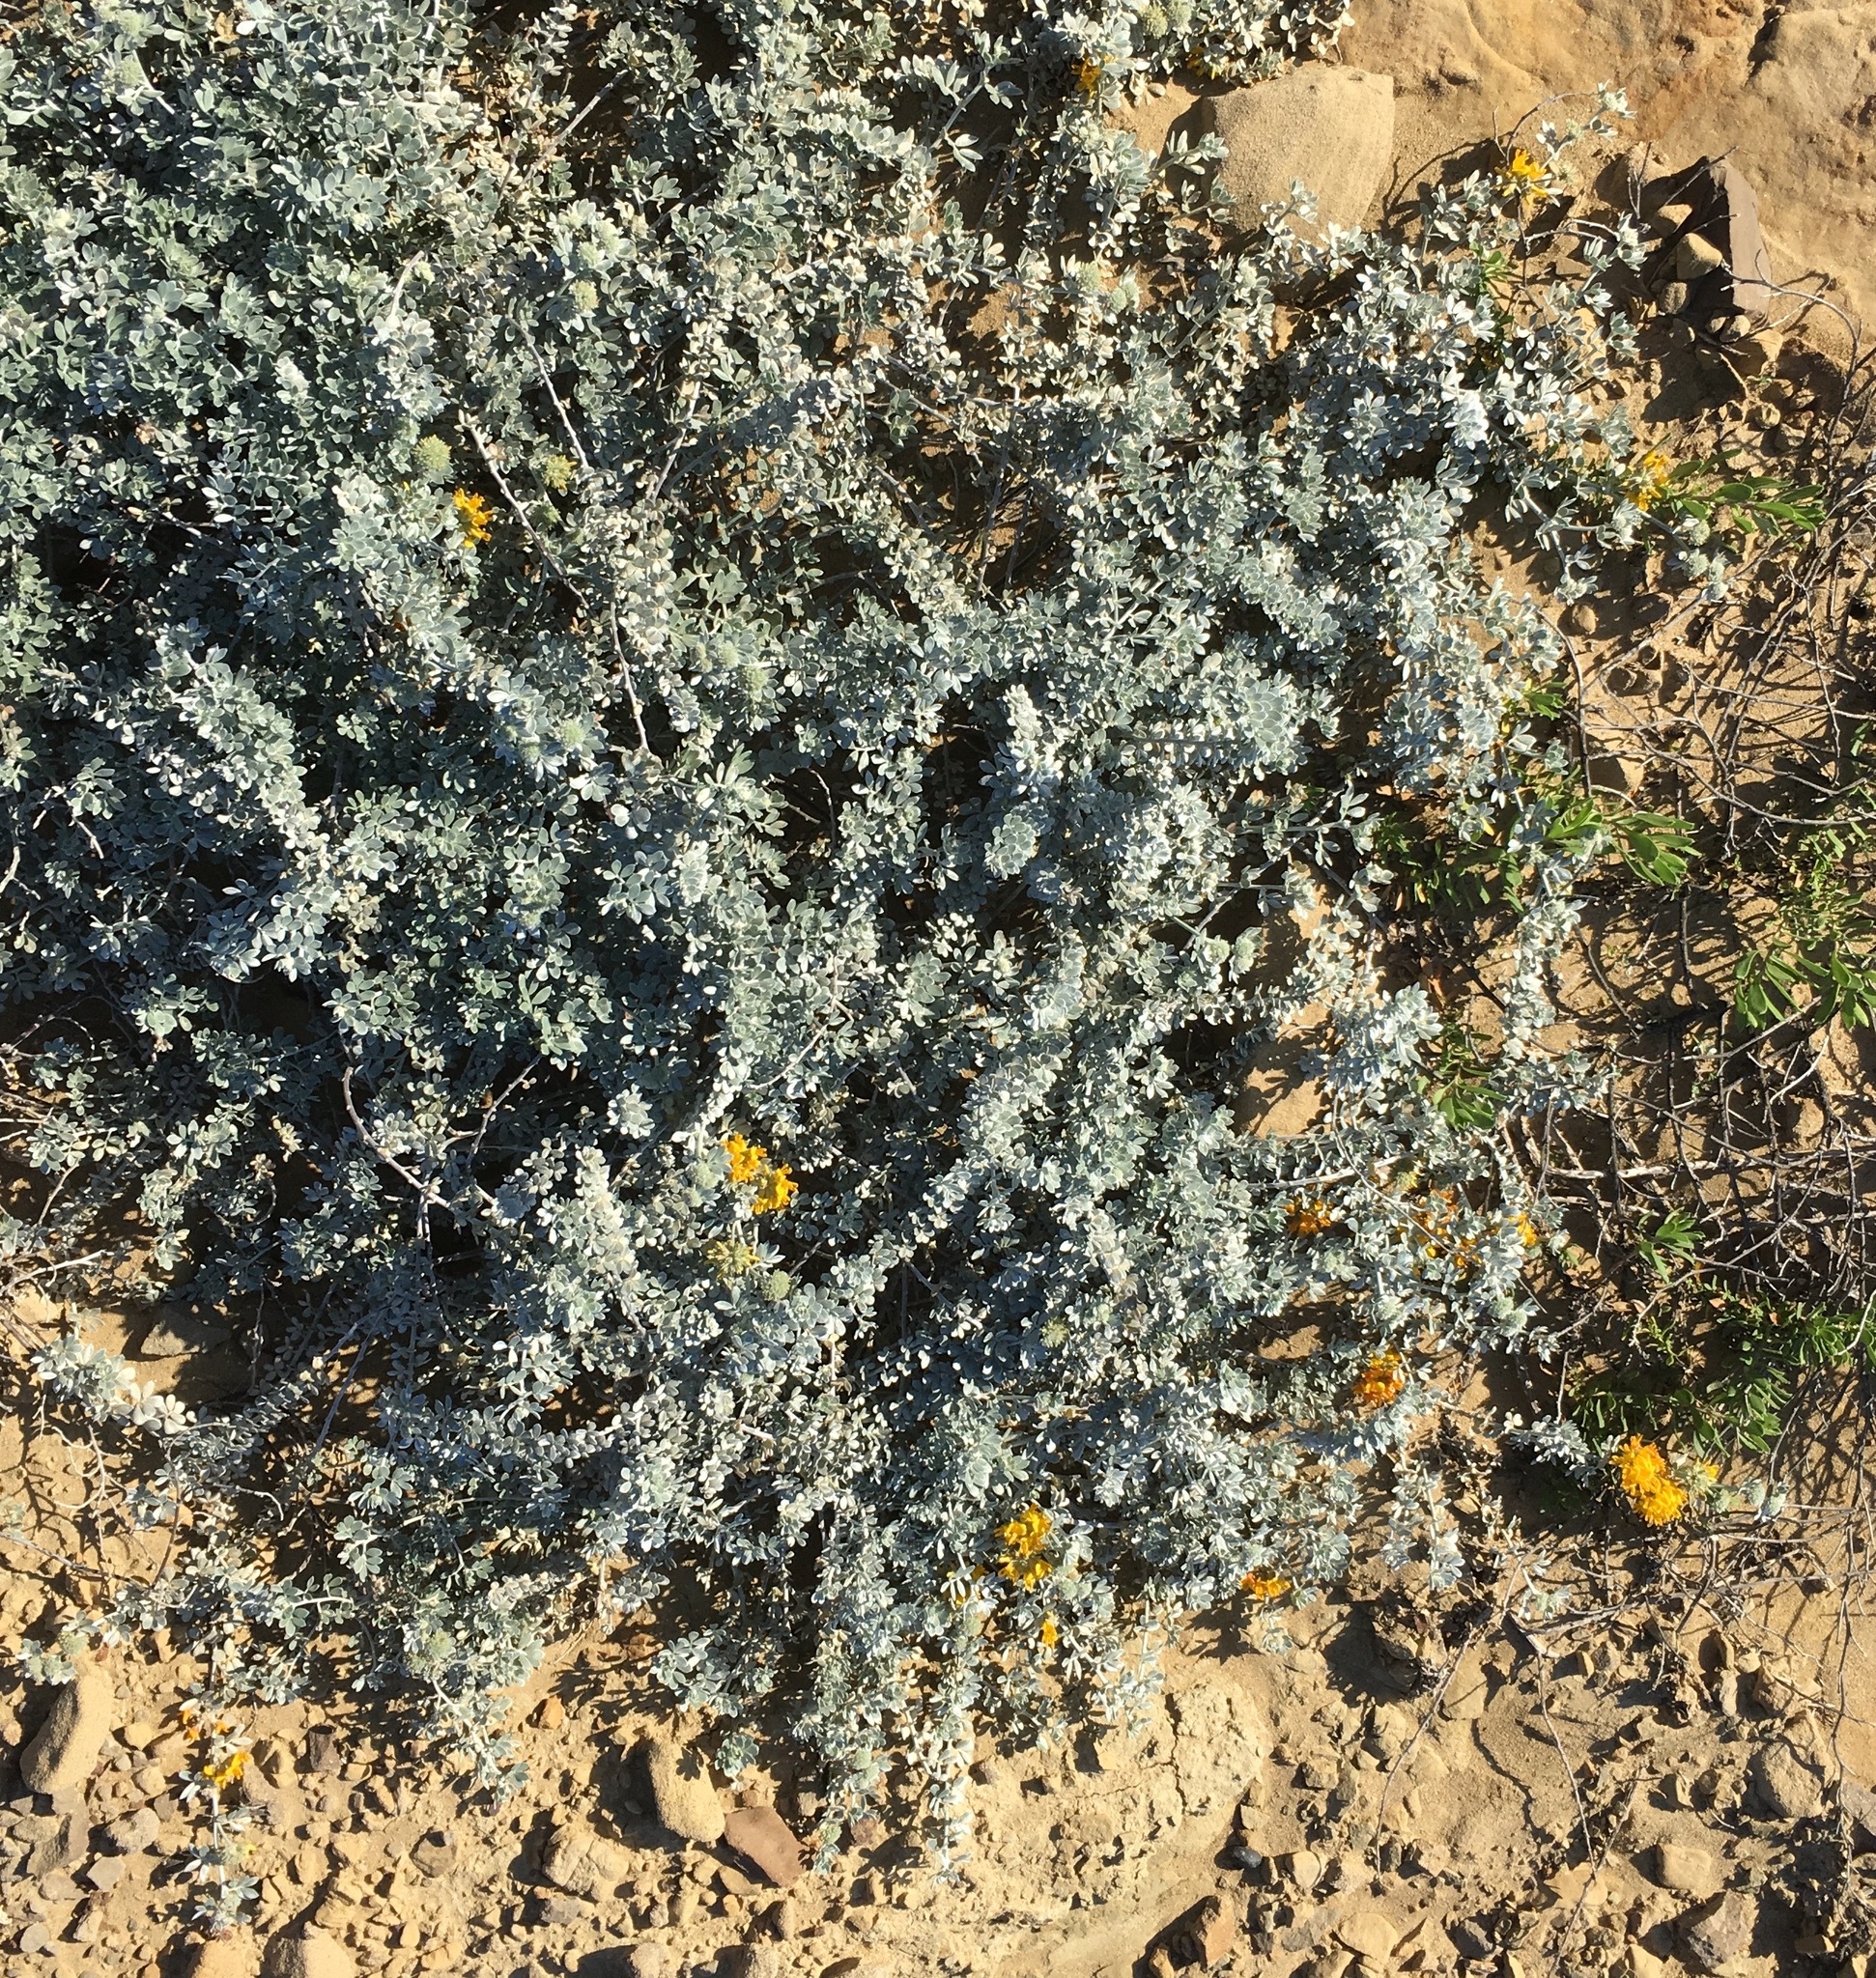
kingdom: Plantae
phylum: Tracheophyta
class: Magnoliopsida
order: Fabales
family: Fabaceae
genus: Acmispon
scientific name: Acmispon argophyllus
